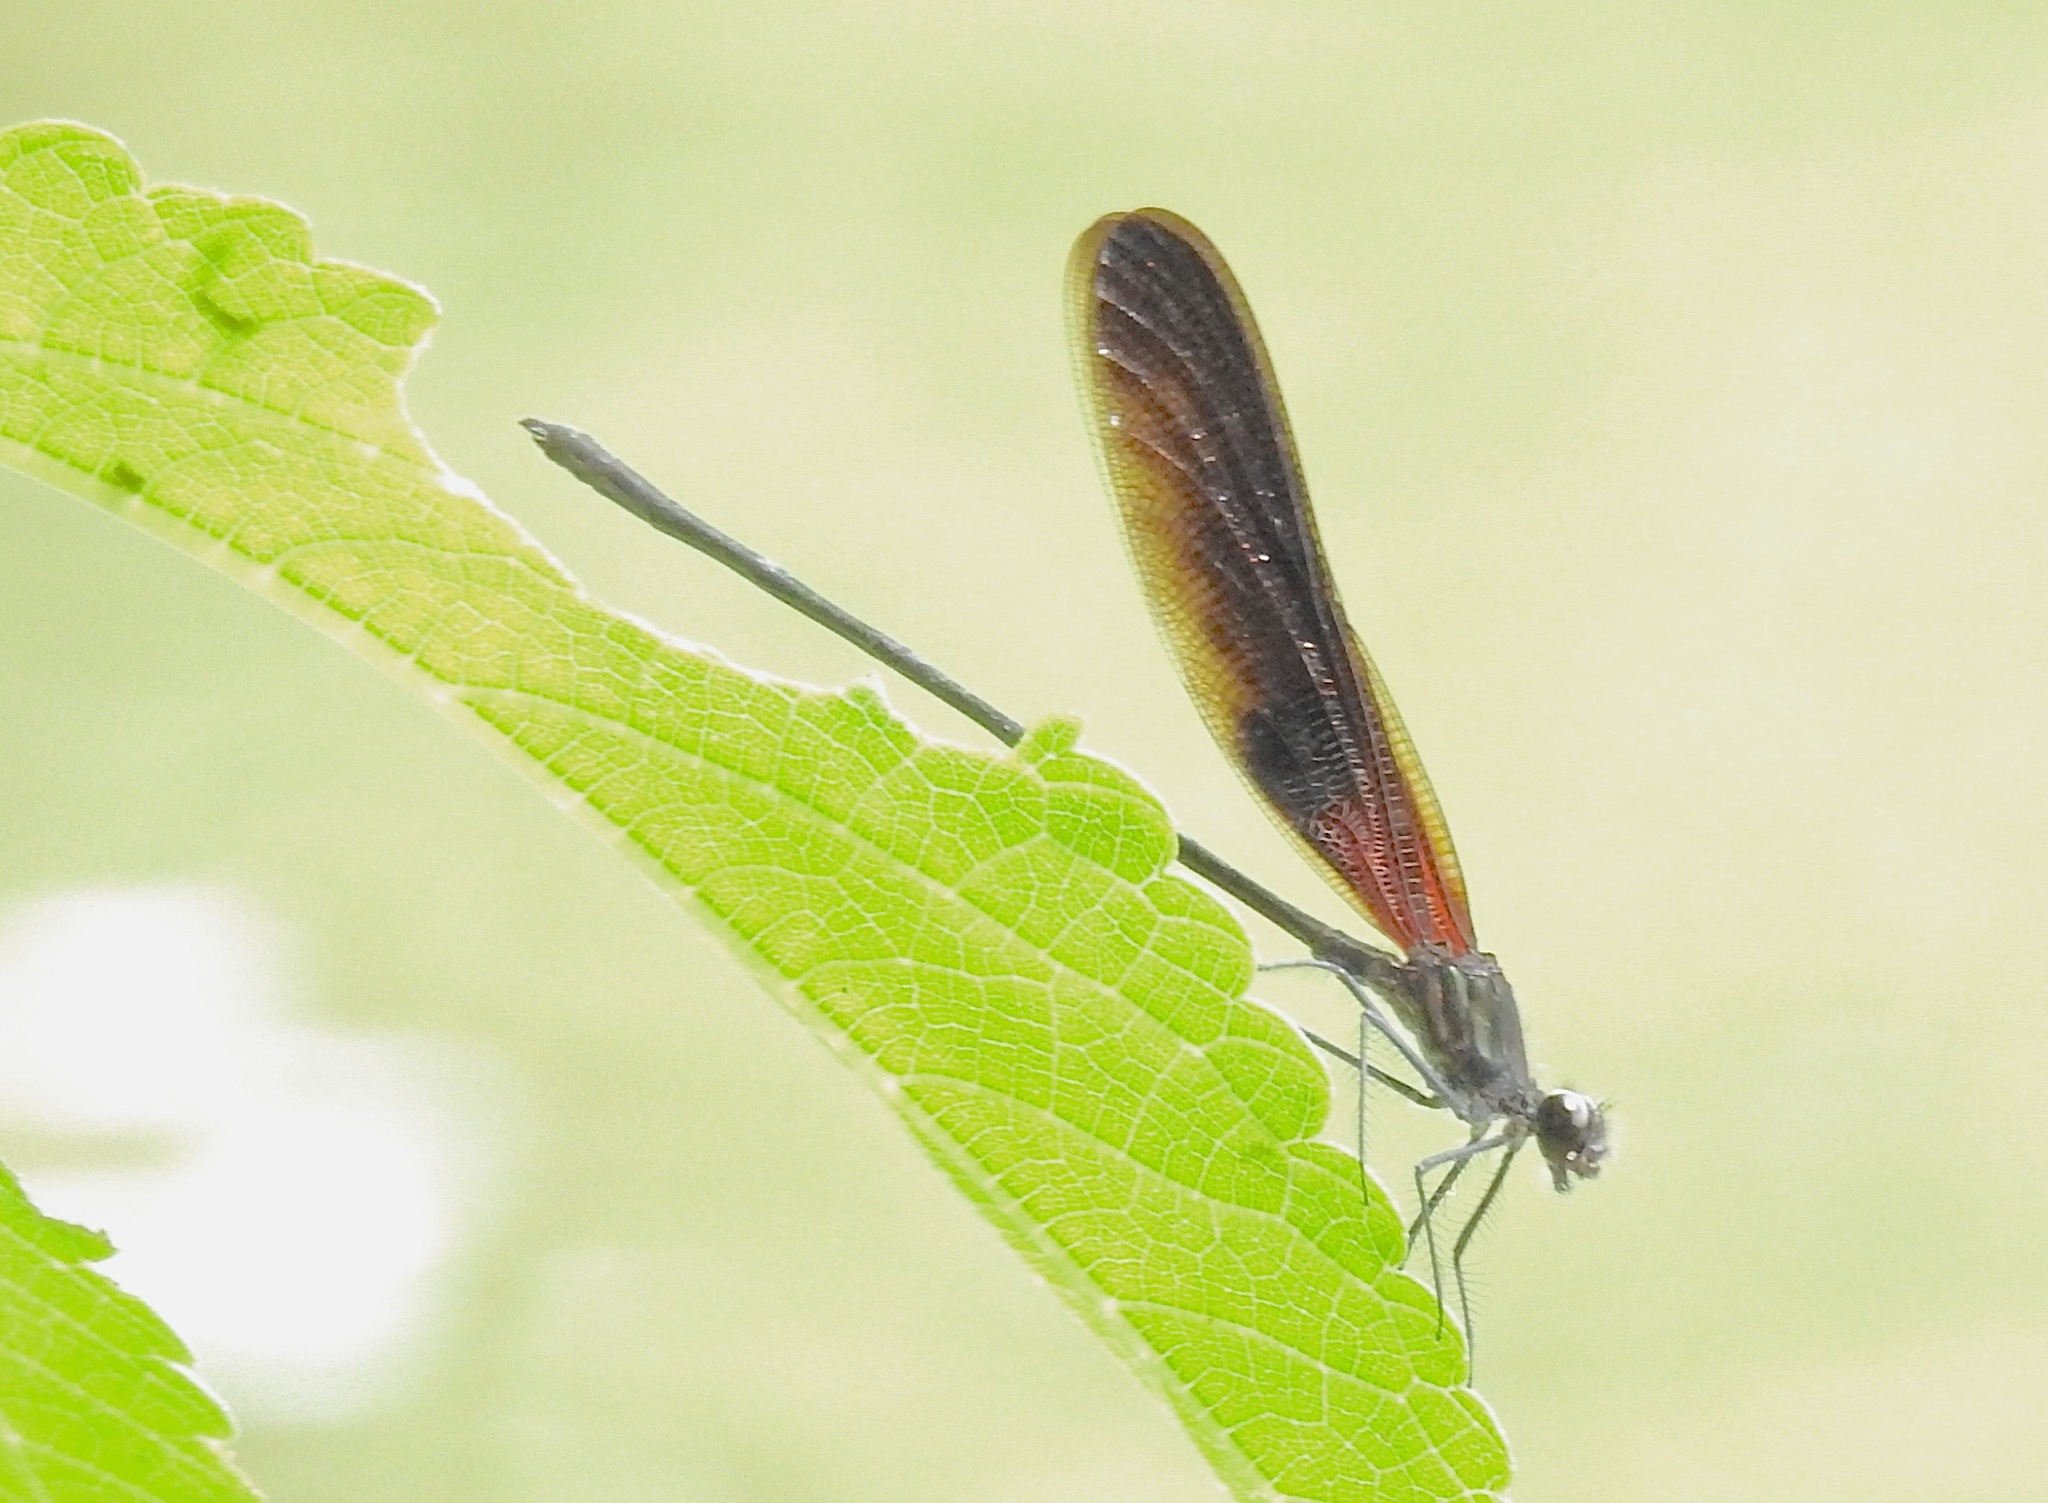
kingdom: Animalia
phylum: Arthropoda
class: Insecta
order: Odonata
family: Calopterygidae
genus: Hetaerina
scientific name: Hetaerina titia
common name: Smoky rubyspot
